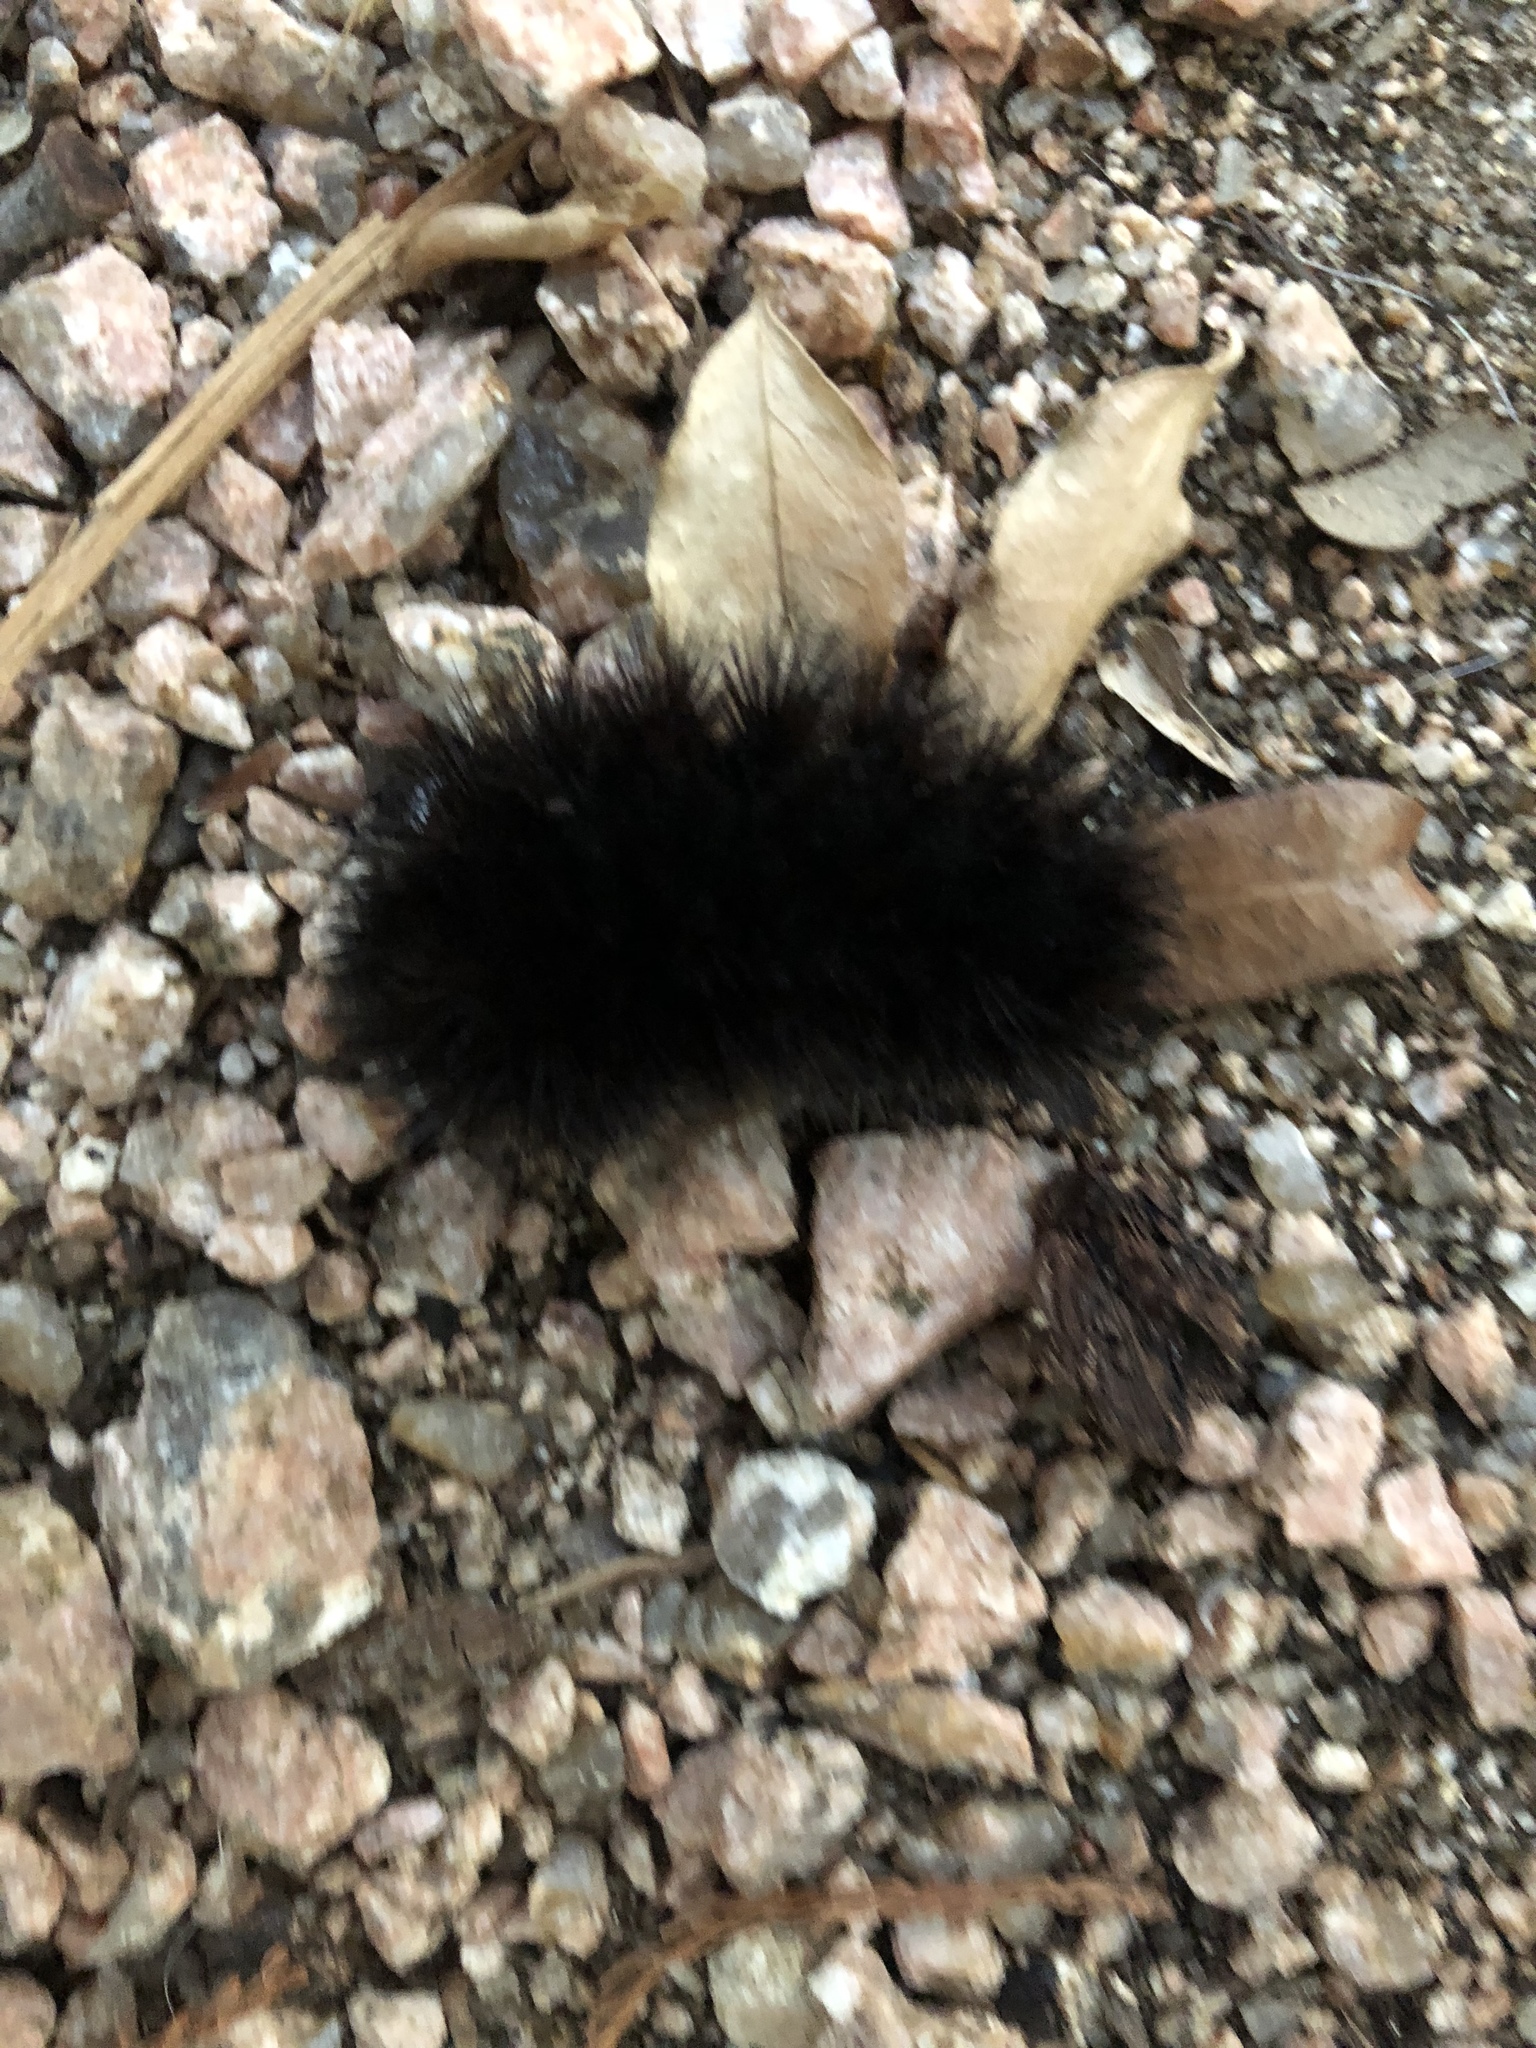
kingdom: Animalia
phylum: Arthropoda
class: Insecta
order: Lepidoptera
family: Erebidae
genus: Hypercompe
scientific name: Hypercompe scribonia
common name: Giant leopard moth
